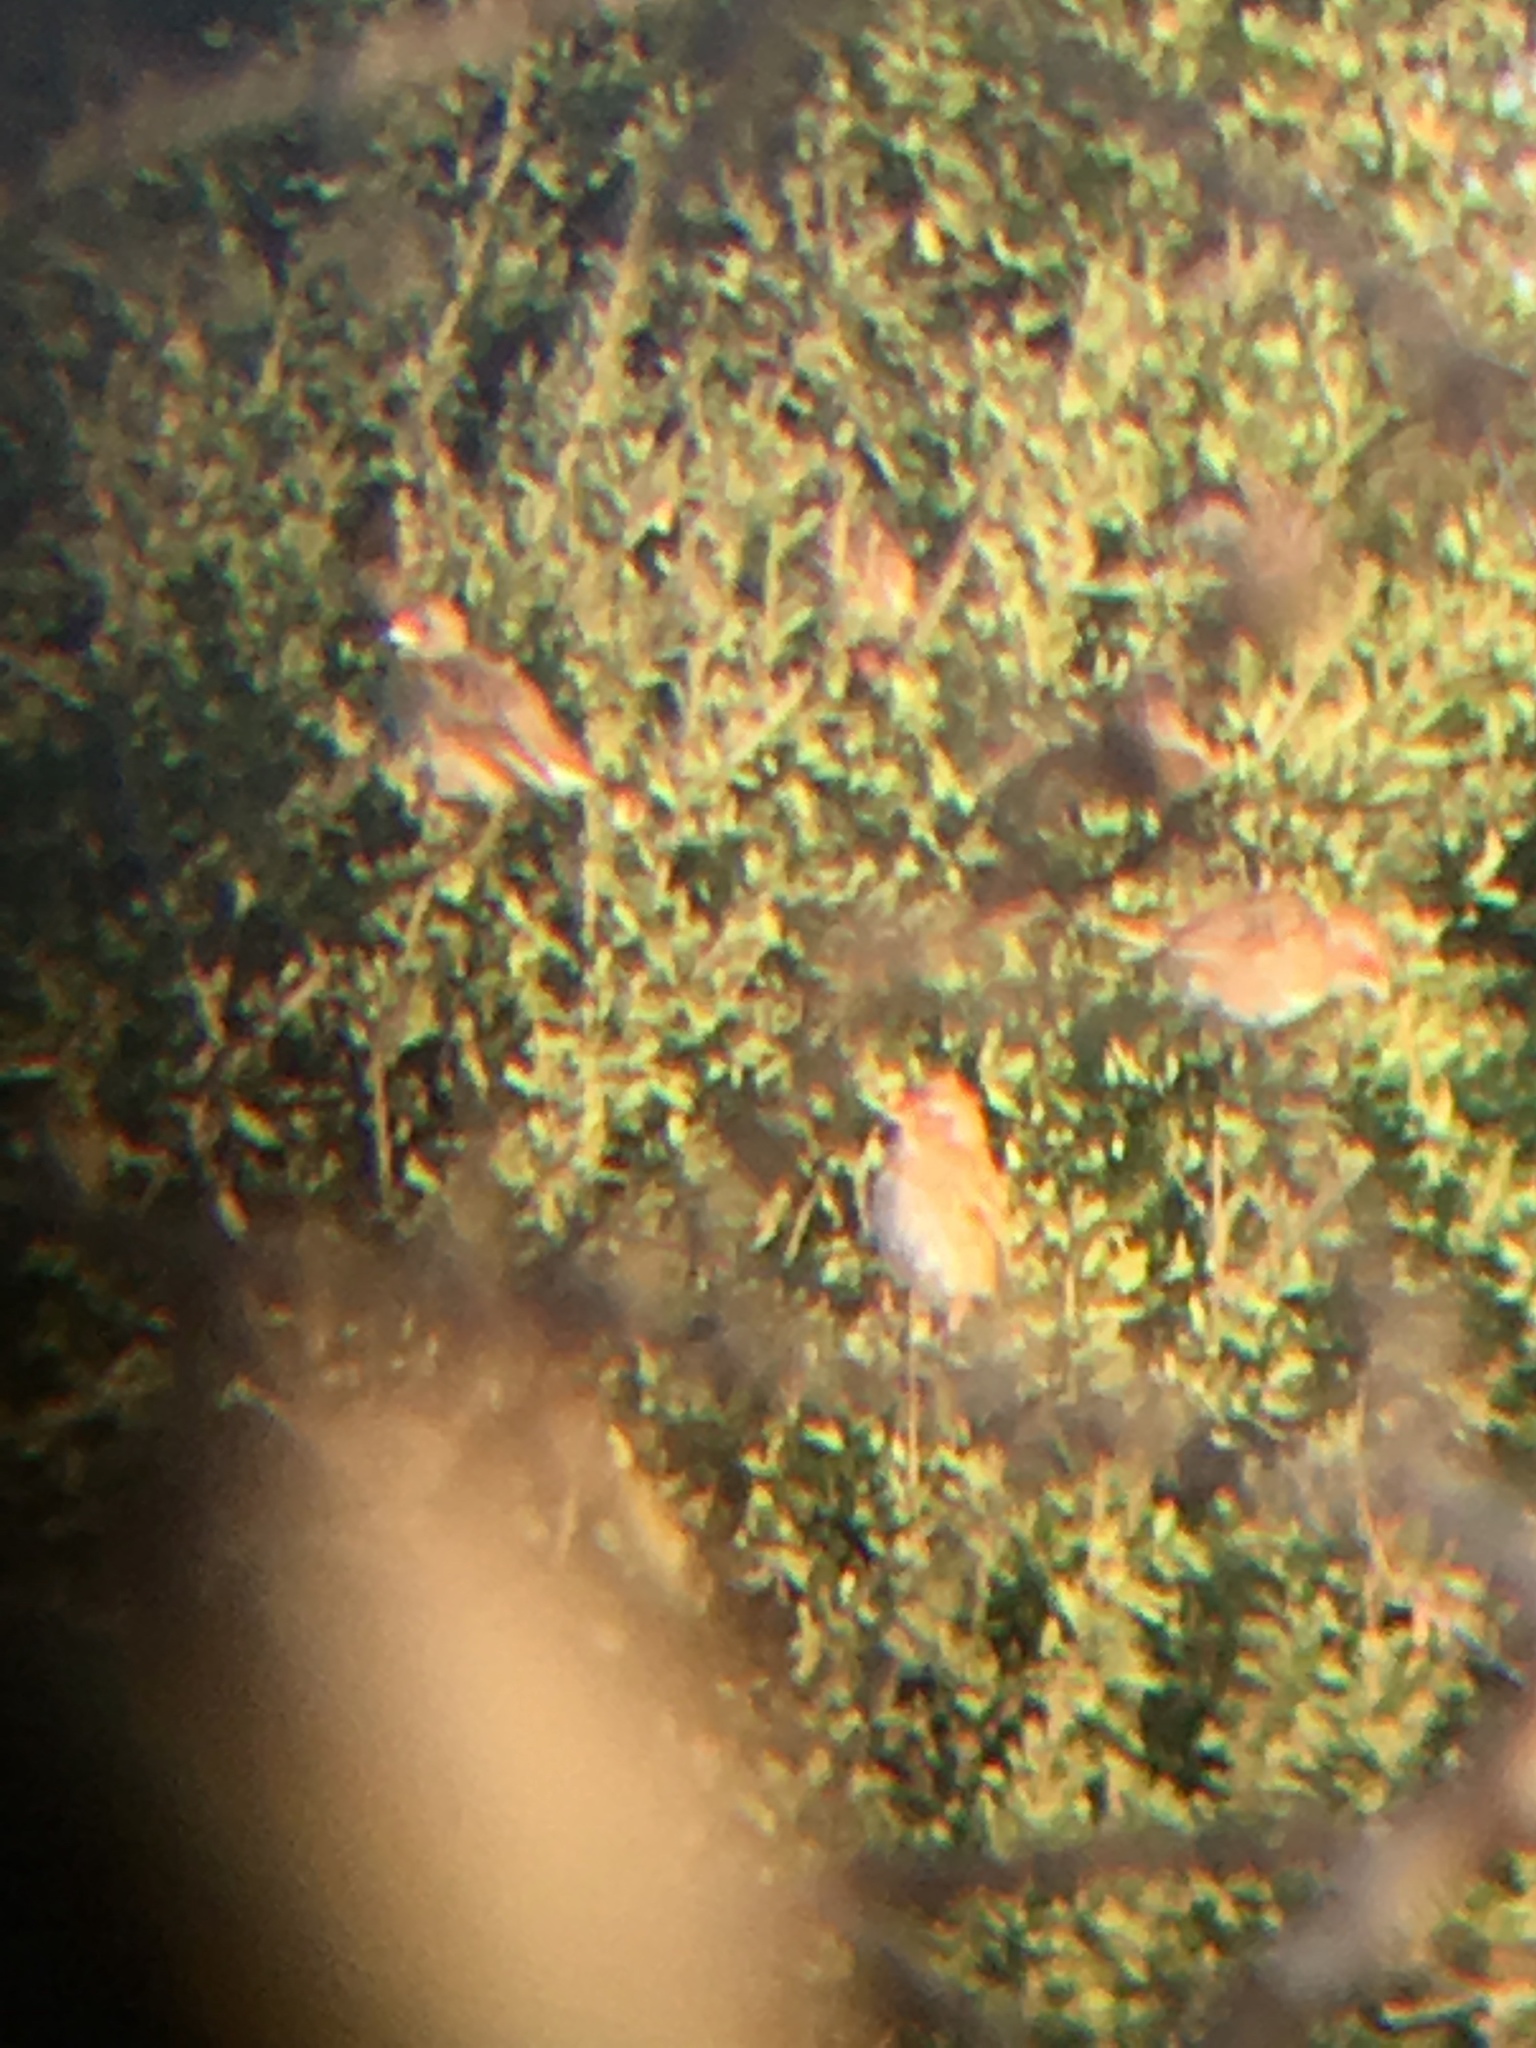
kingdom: Animalia
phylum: Chordata
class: Aves
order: Passeriformes
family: Ploceidae
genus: Quelea
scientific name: Quelea quelea
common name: Red-billed quelea
